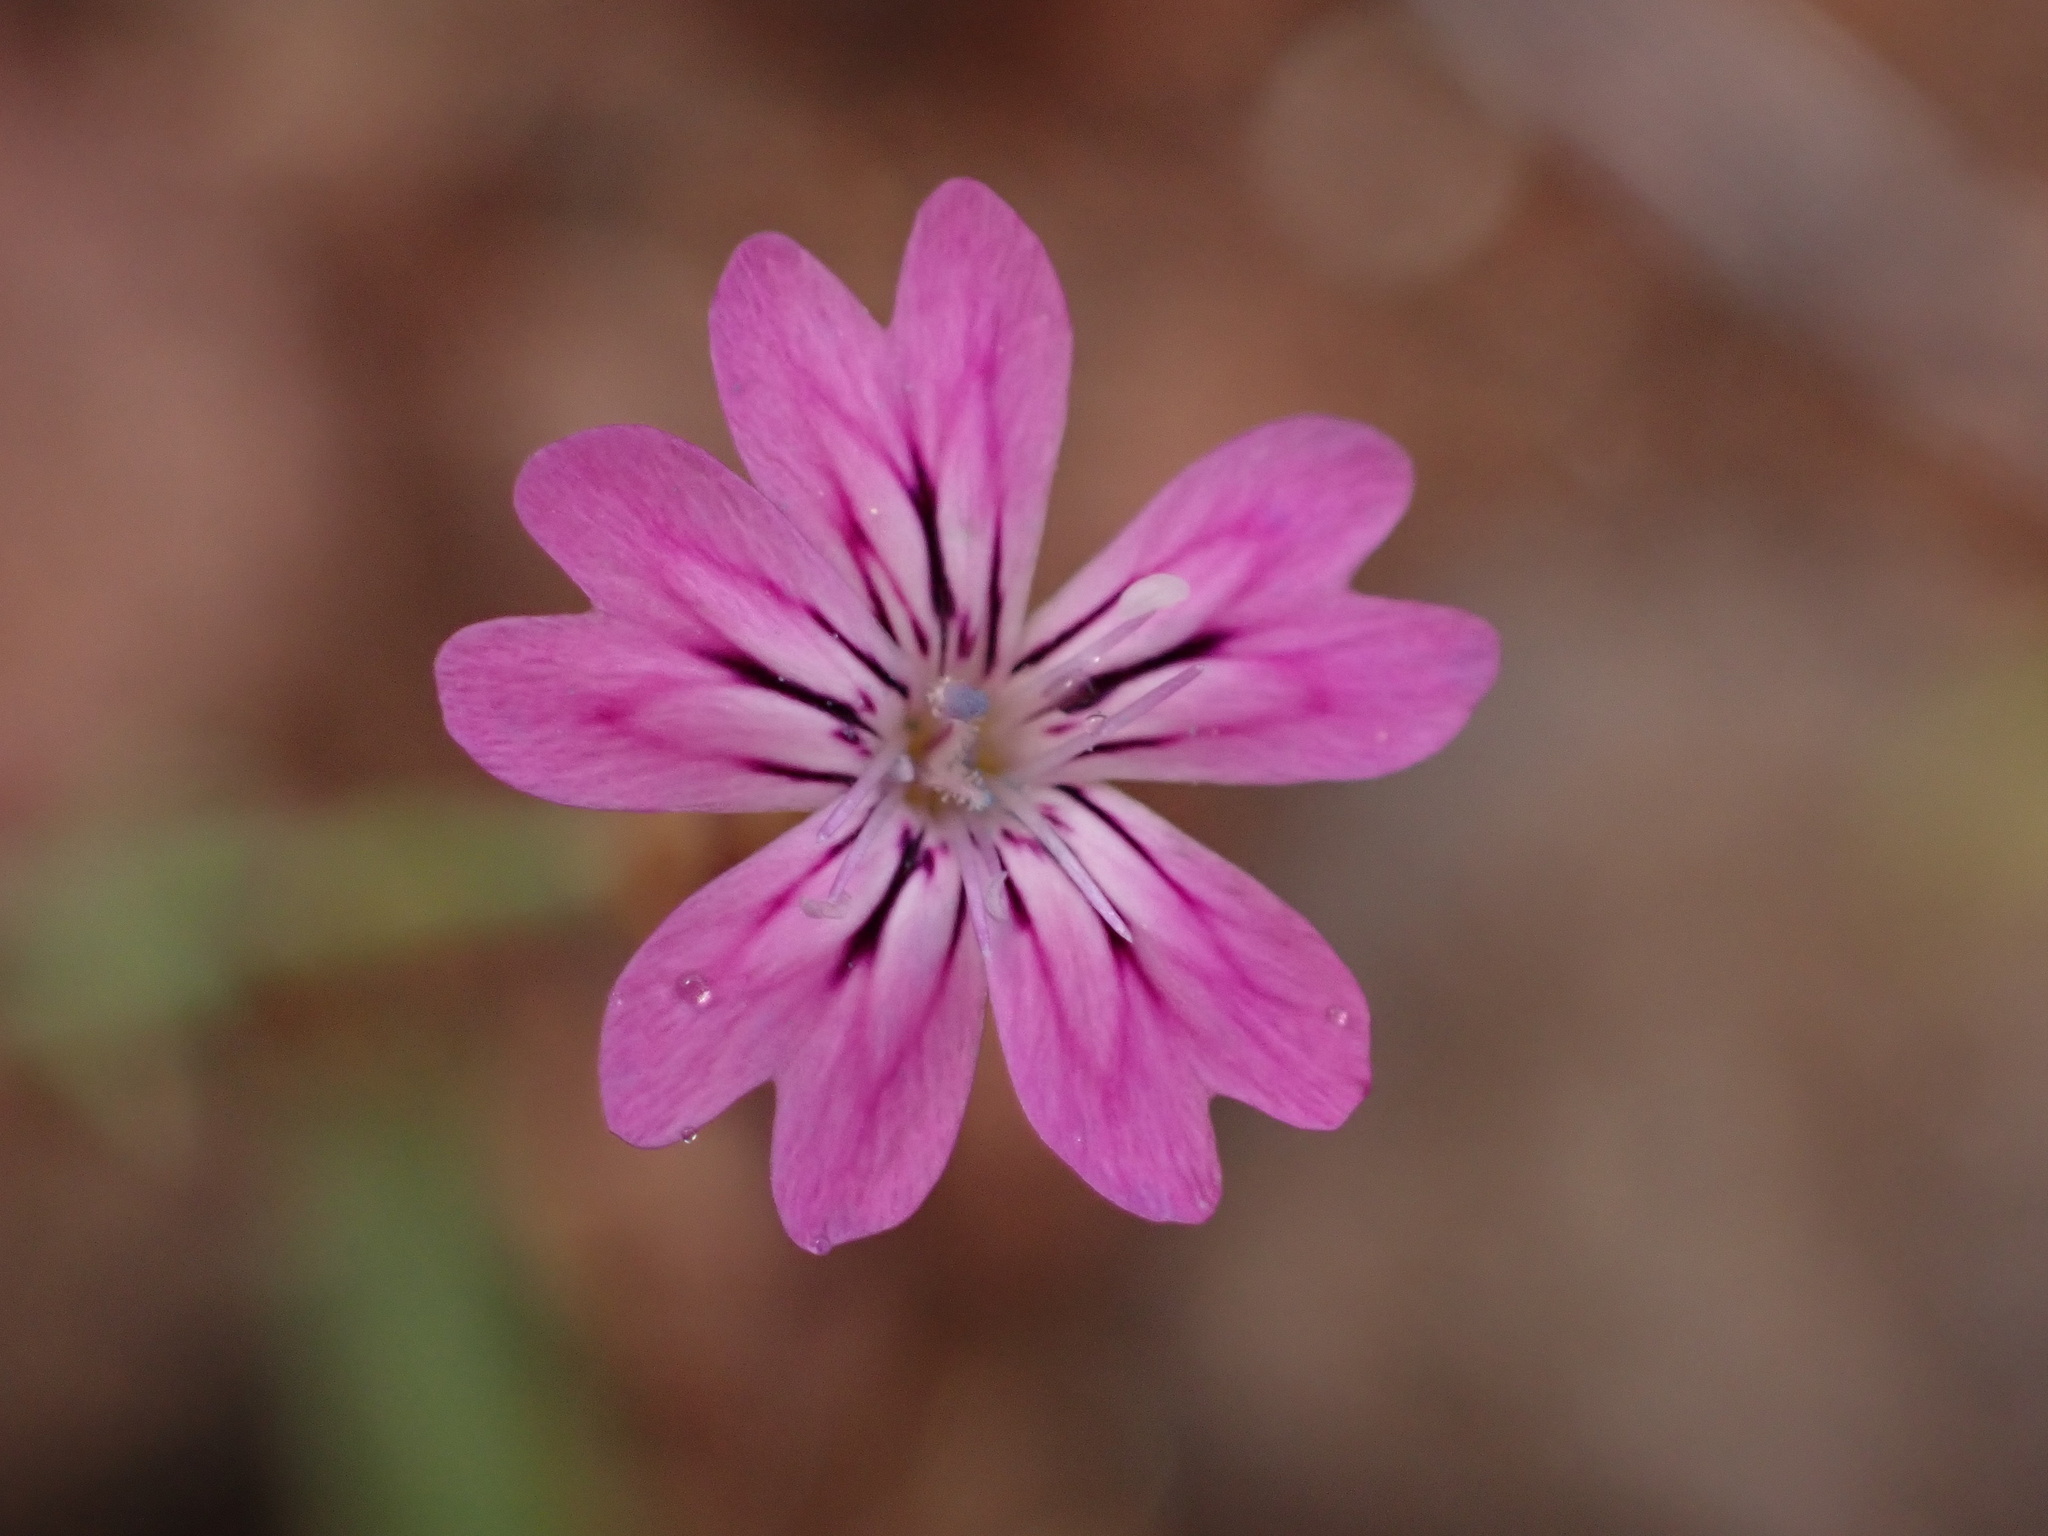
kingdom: Plantae
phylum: Tracheophyta
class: Magnoliopsida
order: Caryophyllales
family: Caryophyllaceae
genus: Petrorhagia
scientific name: Petrorhagia dubia
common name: Hairypink
